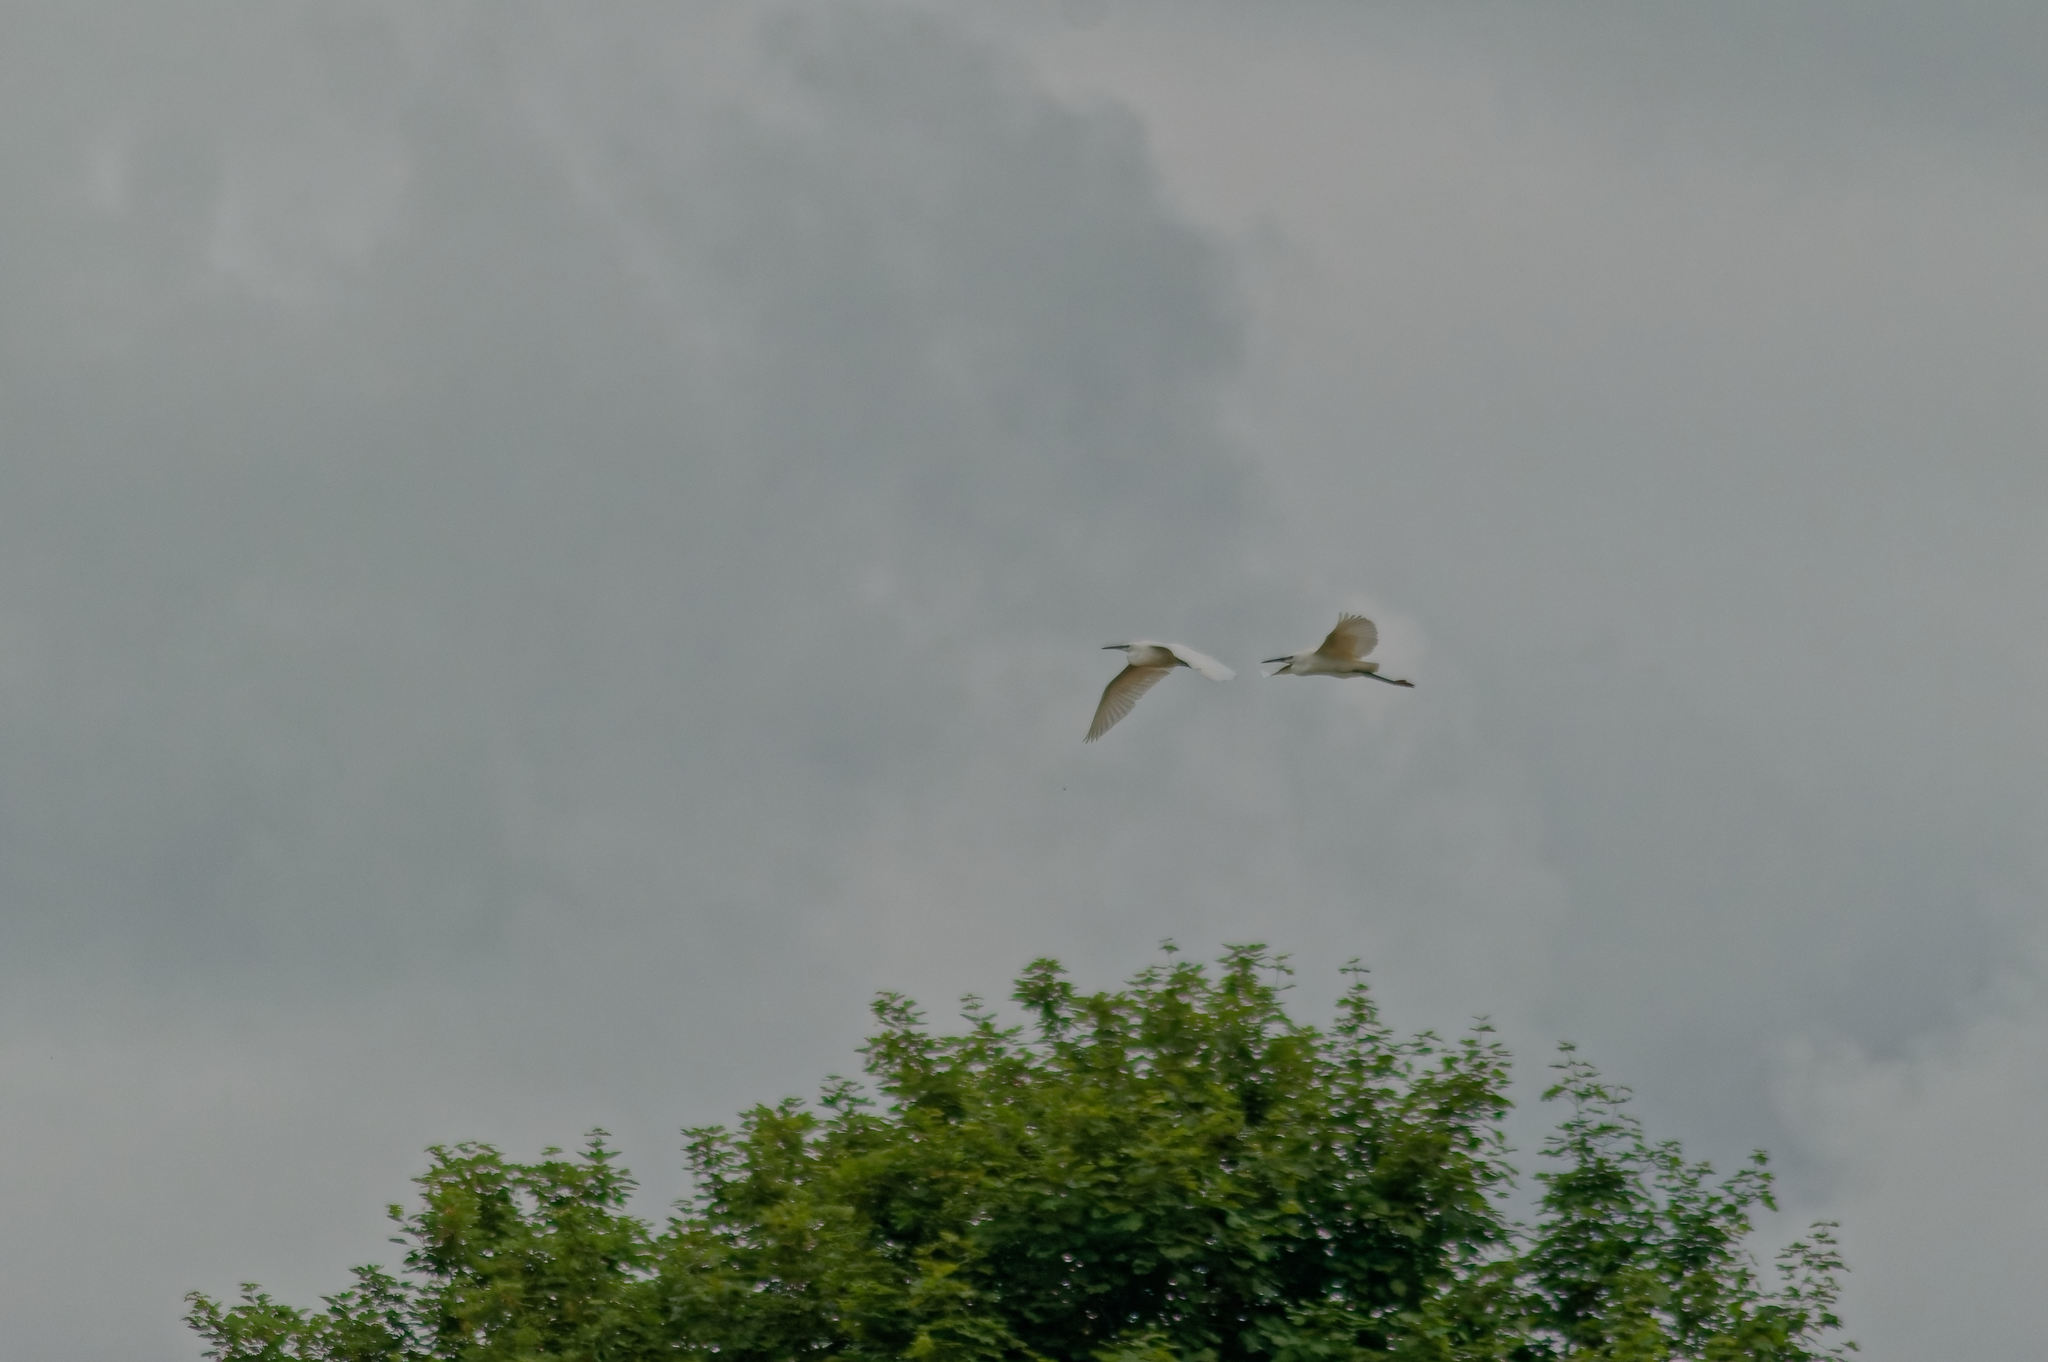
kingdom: Animalia
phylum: Chordata
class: Aves
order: Pelecaniformes
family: Ardeidae
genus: Egretta
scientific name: Egretta garzetta
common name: Little egret
